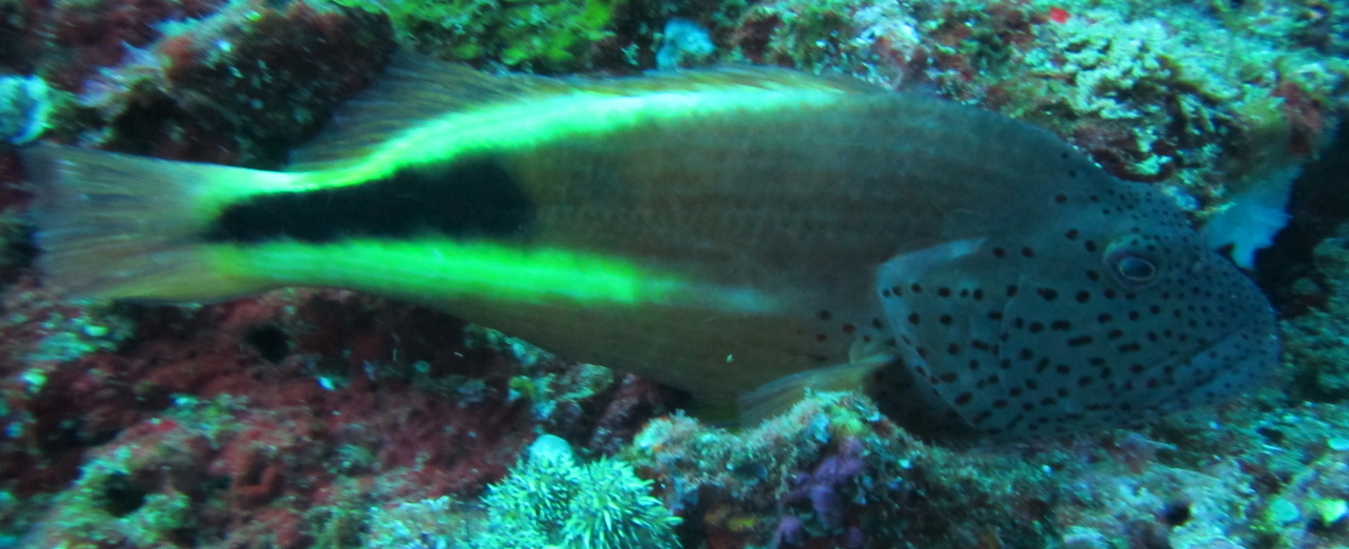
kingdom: Animalia
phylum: Chordata
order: Perciformes
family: Cirrhitidae
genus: Paracirrhites
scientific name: Paracirrhites forsteri
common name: Freckled hawkfish
